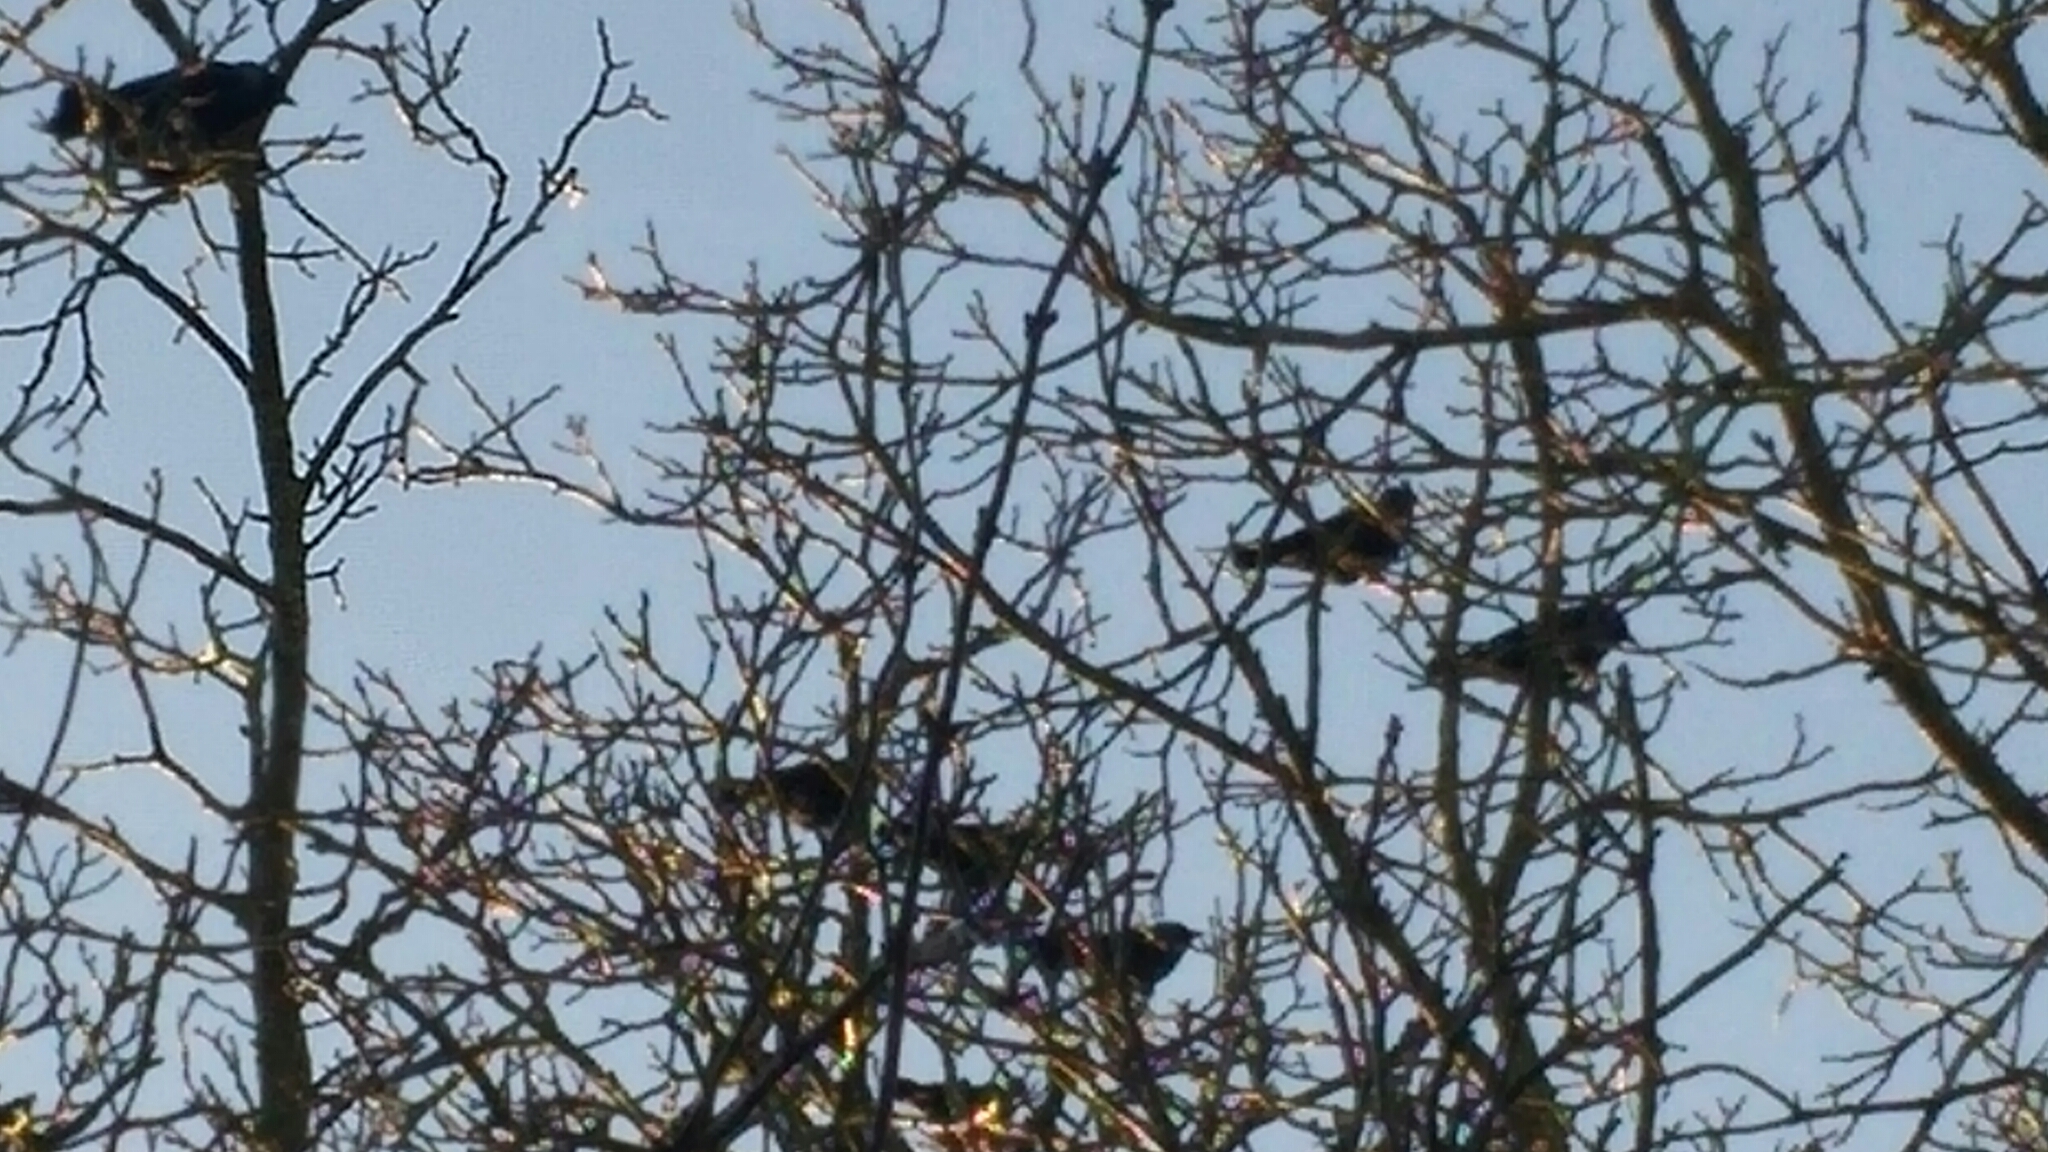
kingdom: Animalia
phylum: Chordata
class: Aves
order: Passeriformes
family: Corvidae
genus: Coloeus
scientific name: Coloeus monedula
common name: Western jackdaw
